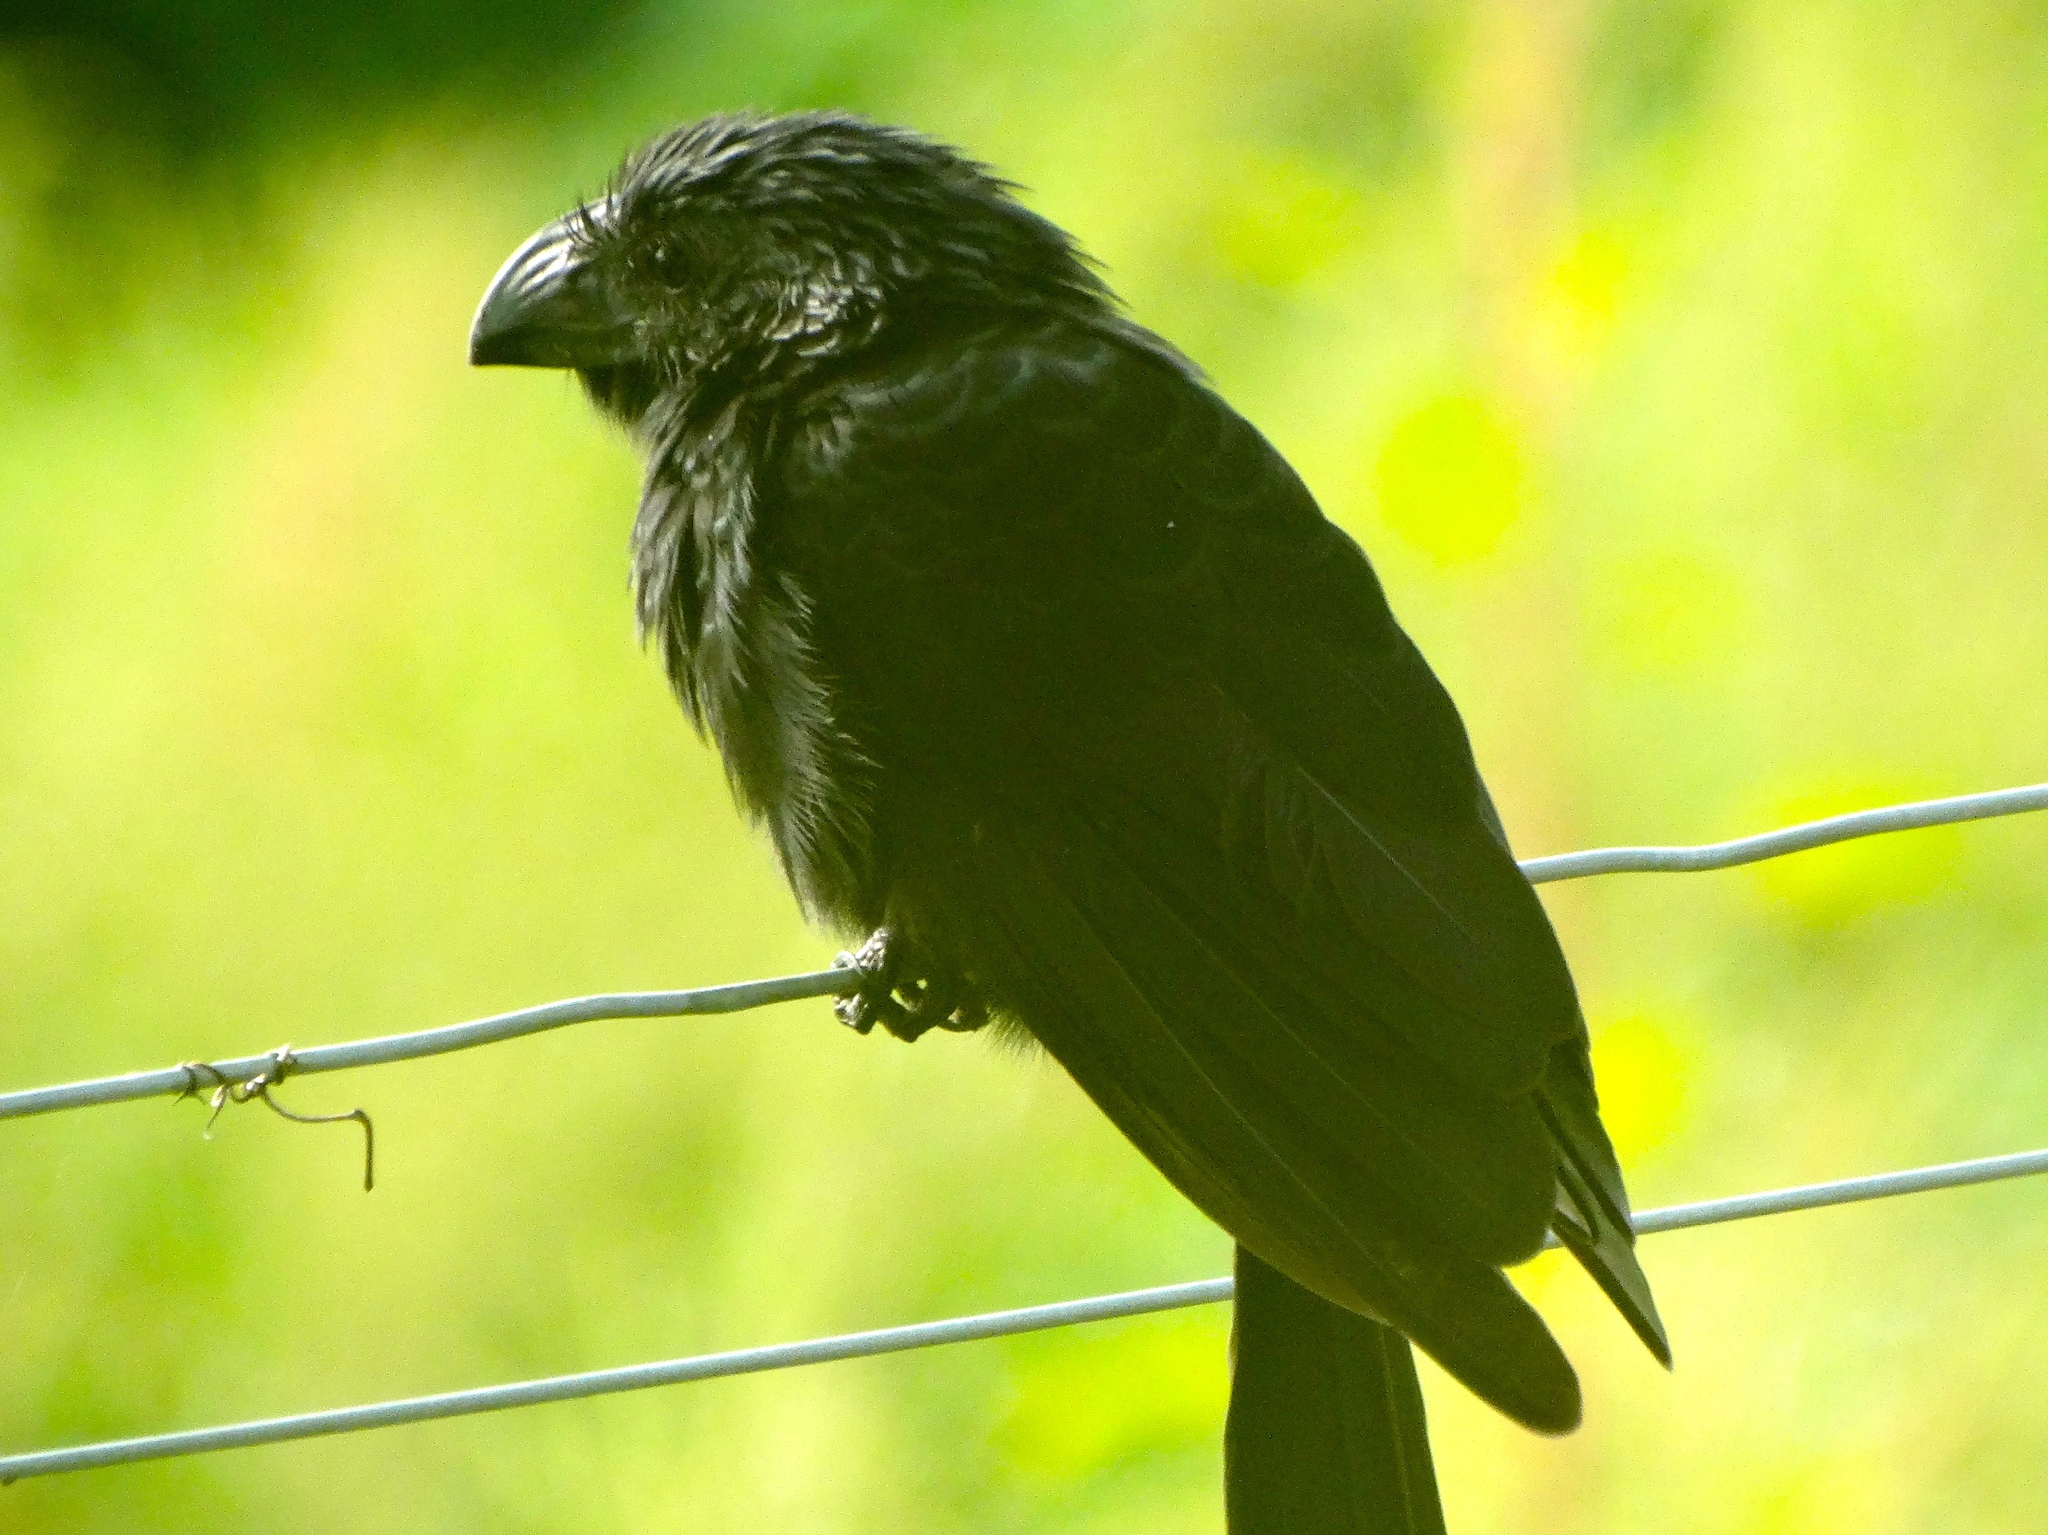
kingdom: Animalia
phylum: Chordata
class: Aves
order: Cuculiformes
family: Cuculidae
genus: Crotophaga
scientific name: Crotophaga sulcirostris
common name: Groove-billed ani
